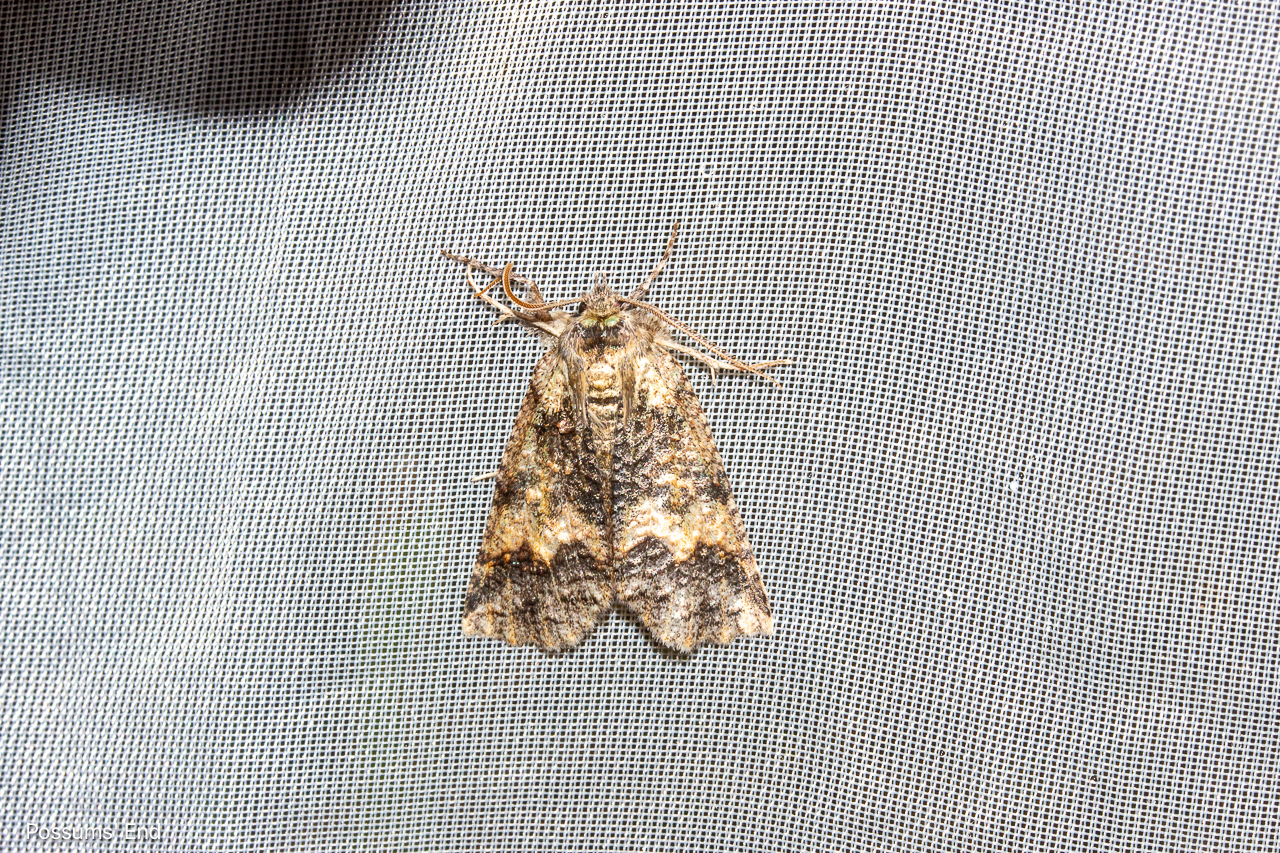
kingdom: Animalia
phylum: Arthropoda
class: Insecta
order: Lepidoptera
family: Geometridae
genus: Declana
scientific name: Declana floccosa
